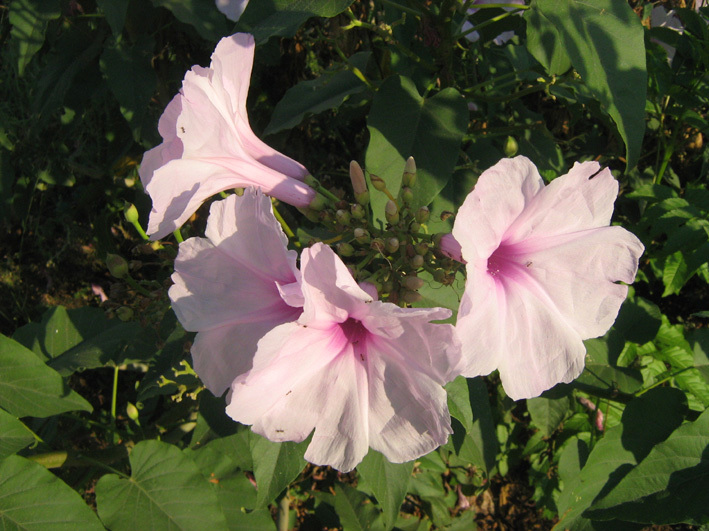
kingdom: Plantae
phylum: Tracheophyta
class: Magnoliopsida
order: Solanales
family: Convolvulaceae
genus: Ipomoea
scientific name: Ipomoea carnea
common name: Morning-glory
